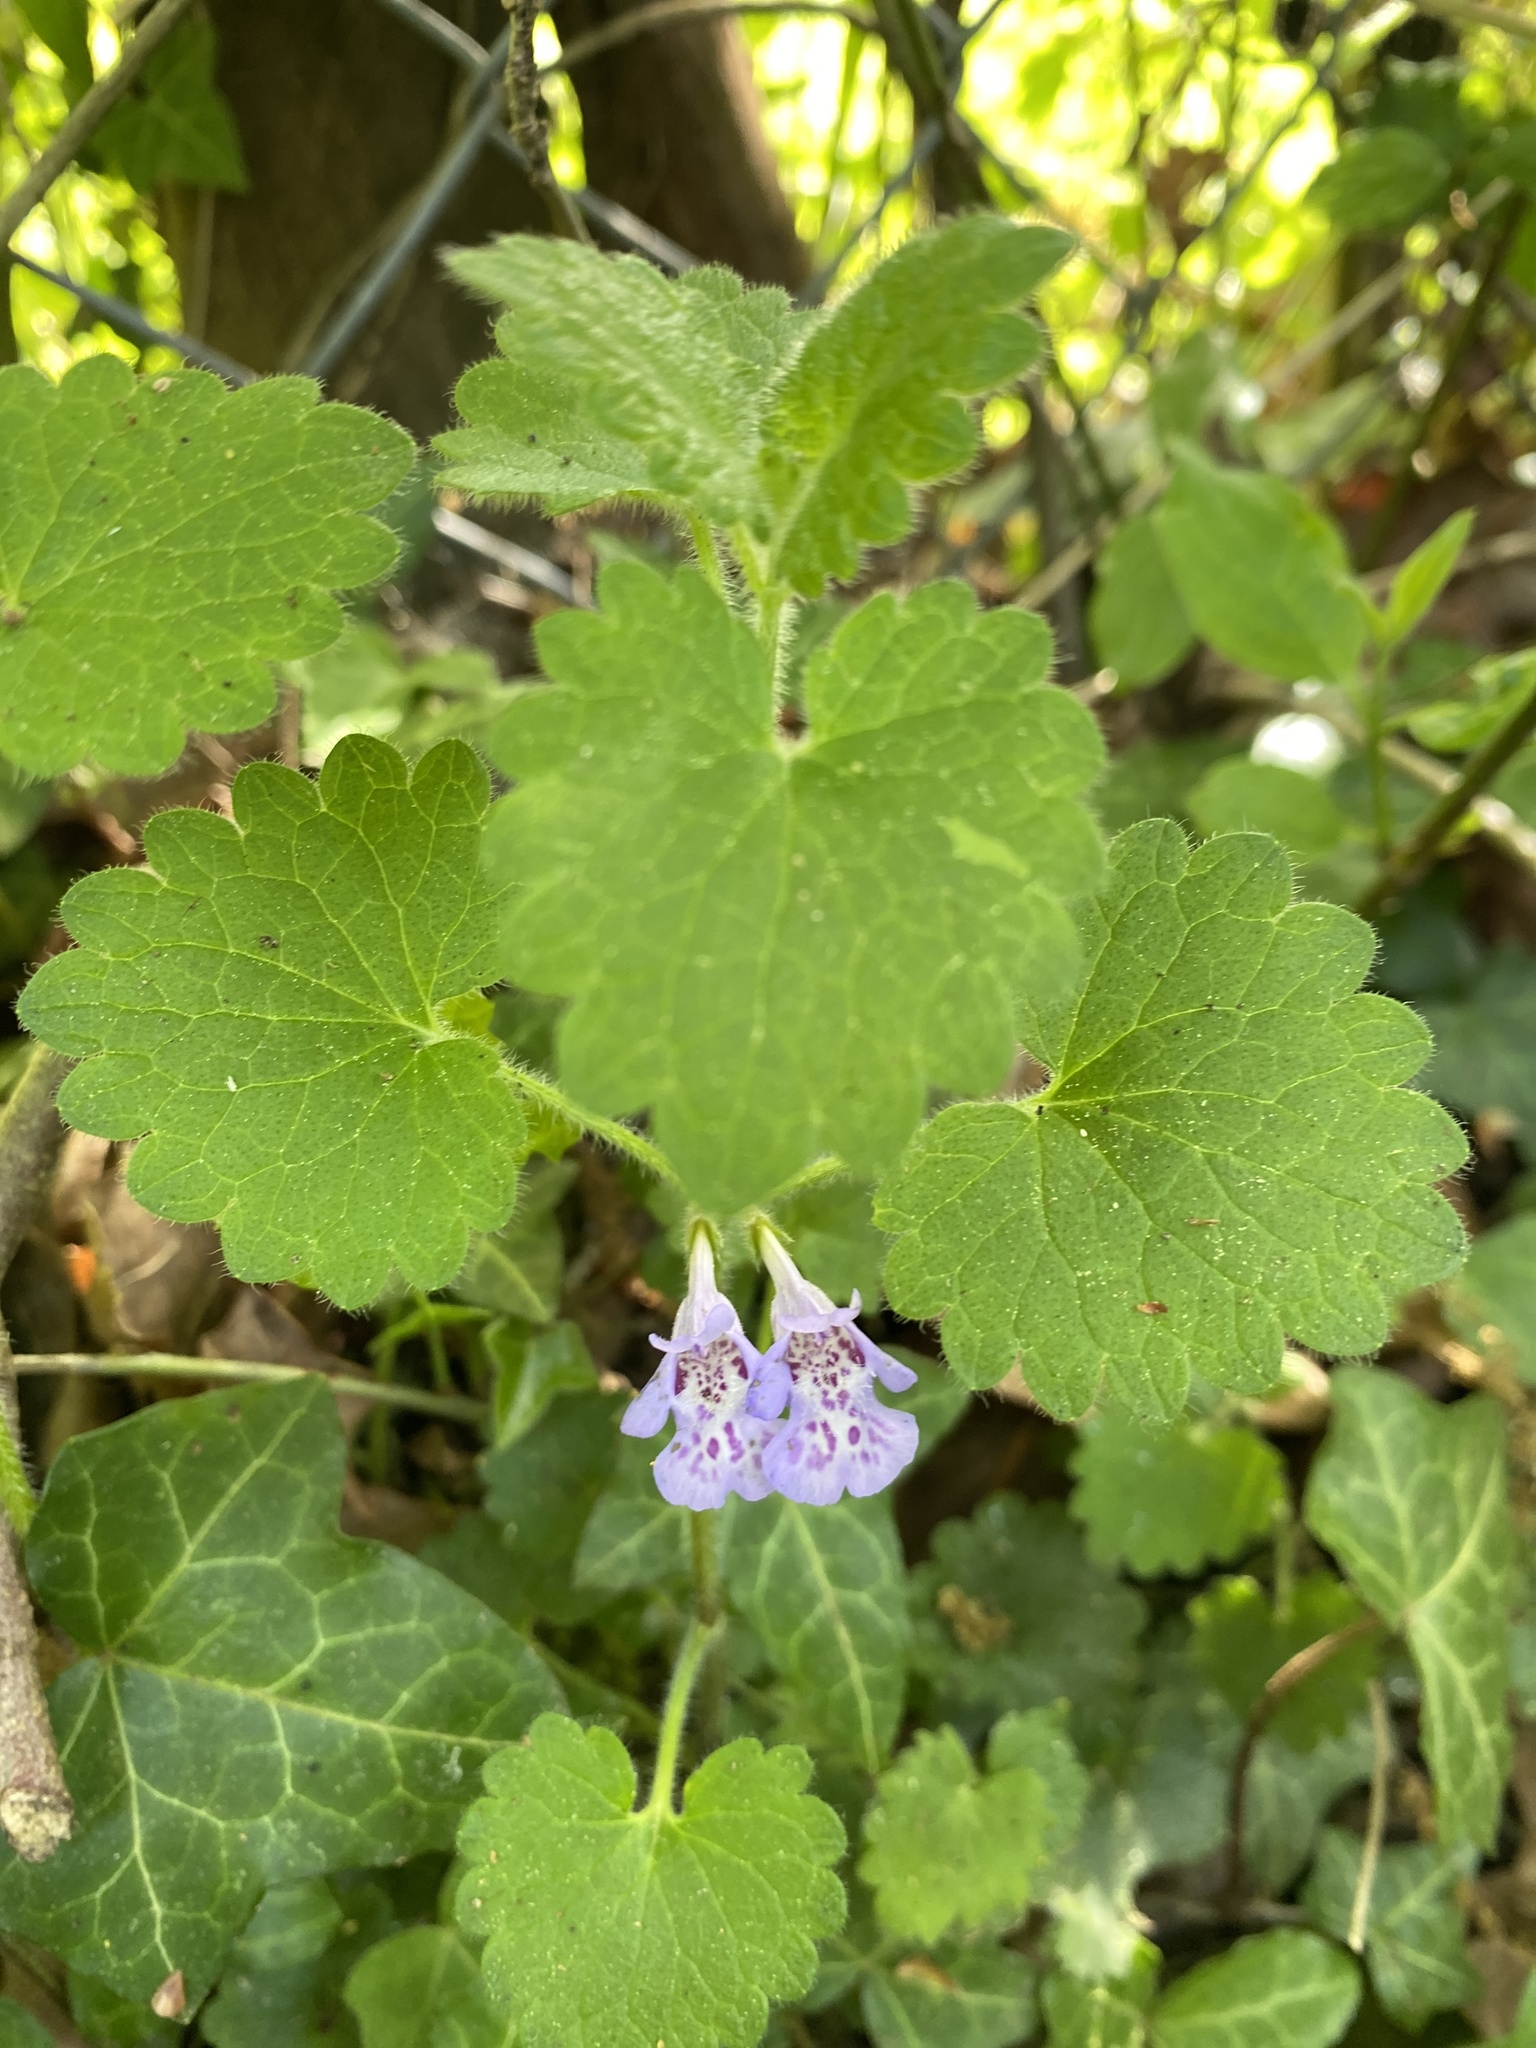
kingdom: Plantae
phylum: Tracheophyta
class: Magnoliopsida
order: Lamiales
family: Lamiaceae
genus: Glechoma
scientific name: Glechoma hederacea
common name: Ground ivy
